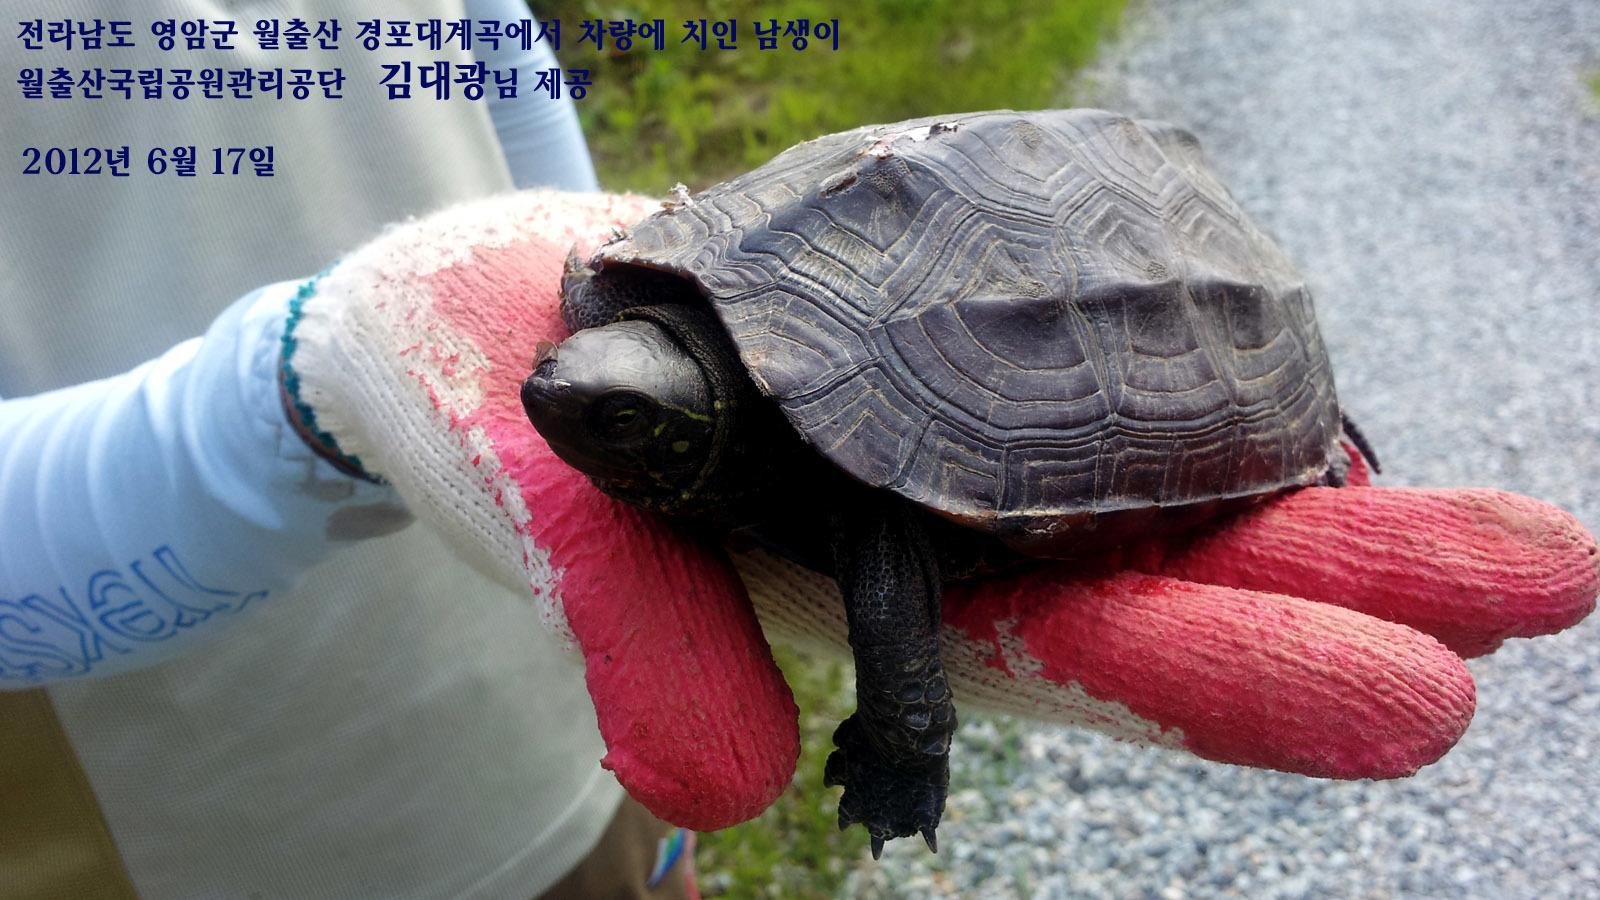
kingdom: Animalia
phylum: Chordata
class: Testudines
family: Geoemydidae
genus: Mauremys
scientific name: Mauremys reevesii
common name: Chinese pond turtle
